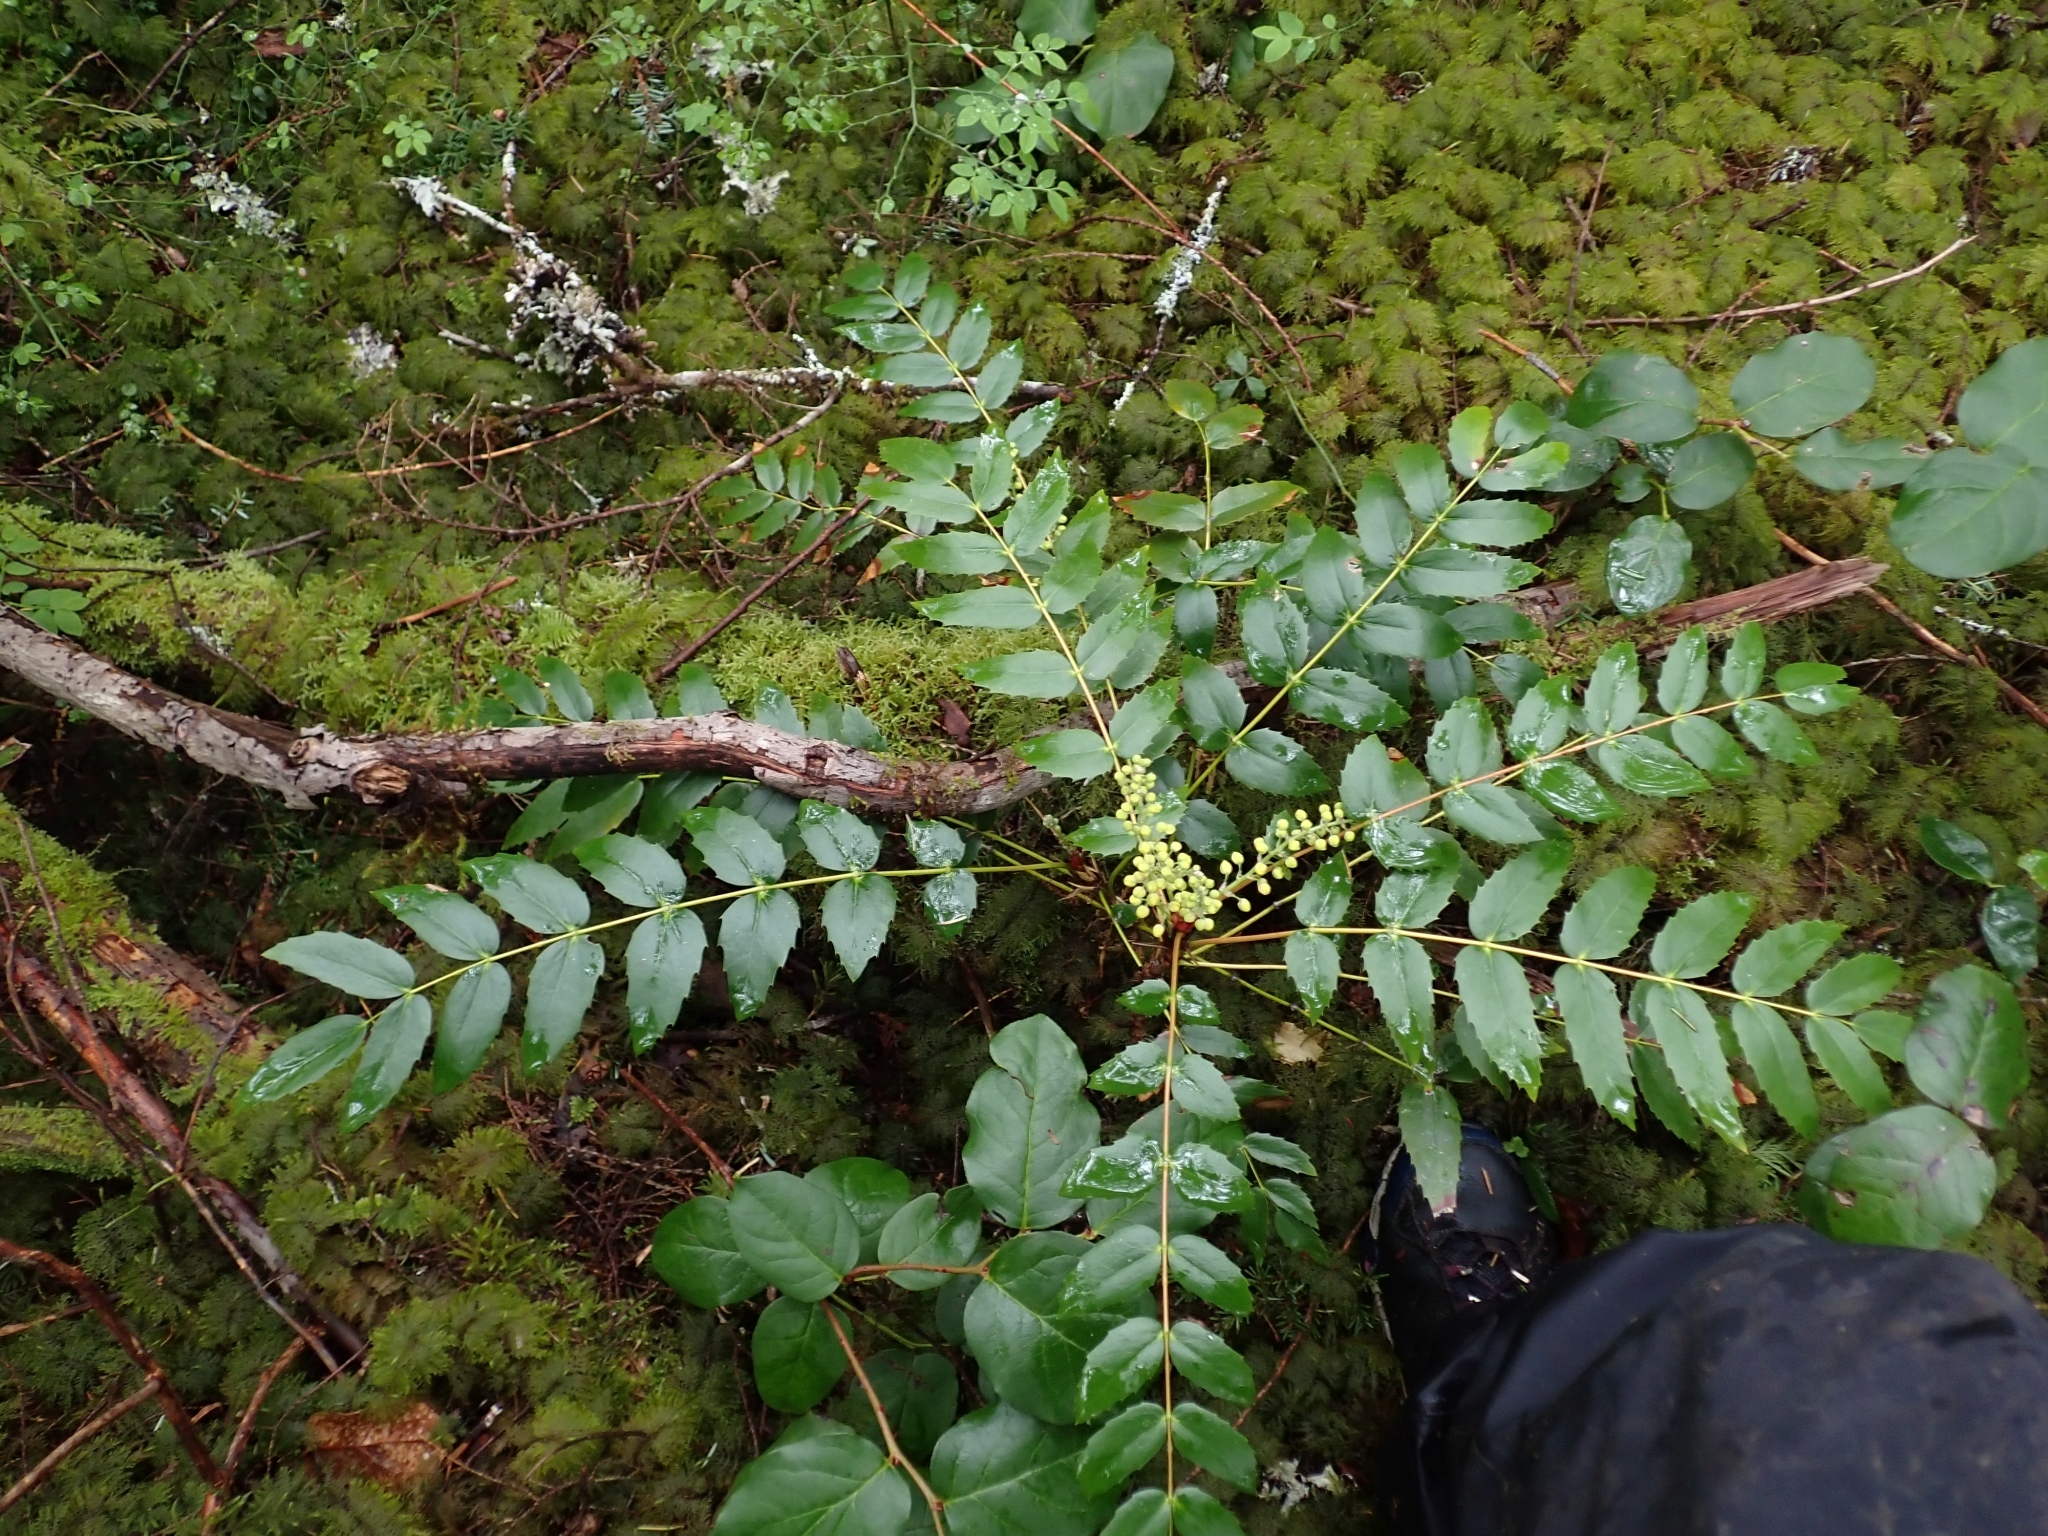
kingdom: Plantae
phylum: Tracheophyta
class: Magnoliopsida
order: Ranunculales
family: Berberidaceae
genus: Mahonia
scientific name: Mahonia nervosa
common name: Cascade oregon-grape
